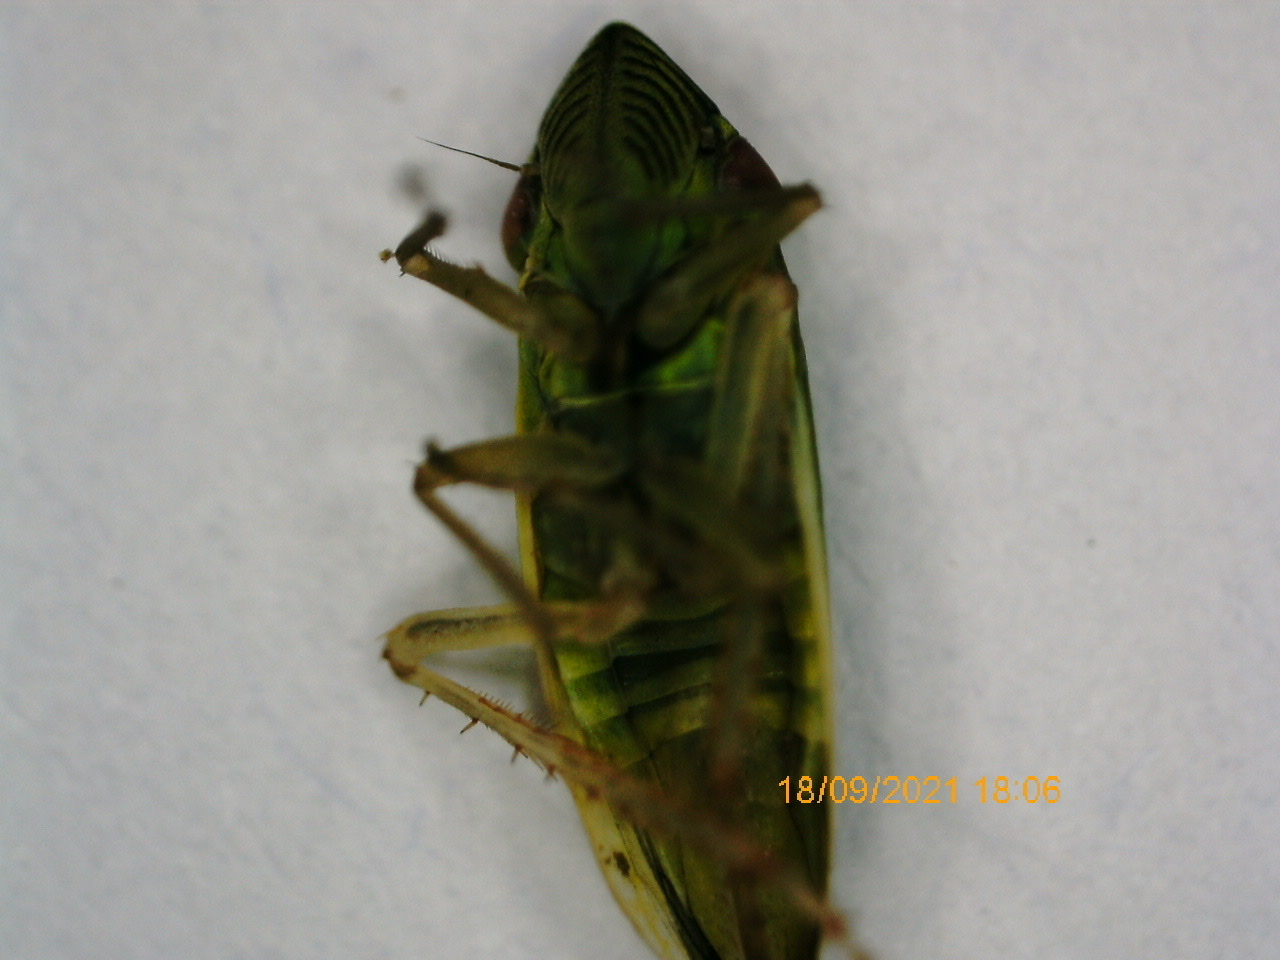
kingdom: Animalia
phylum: Arthropoda
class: Insecta
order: Hemiptera
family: Cicadellidae
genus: Syncharina
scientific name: Syncharina lineiceps
